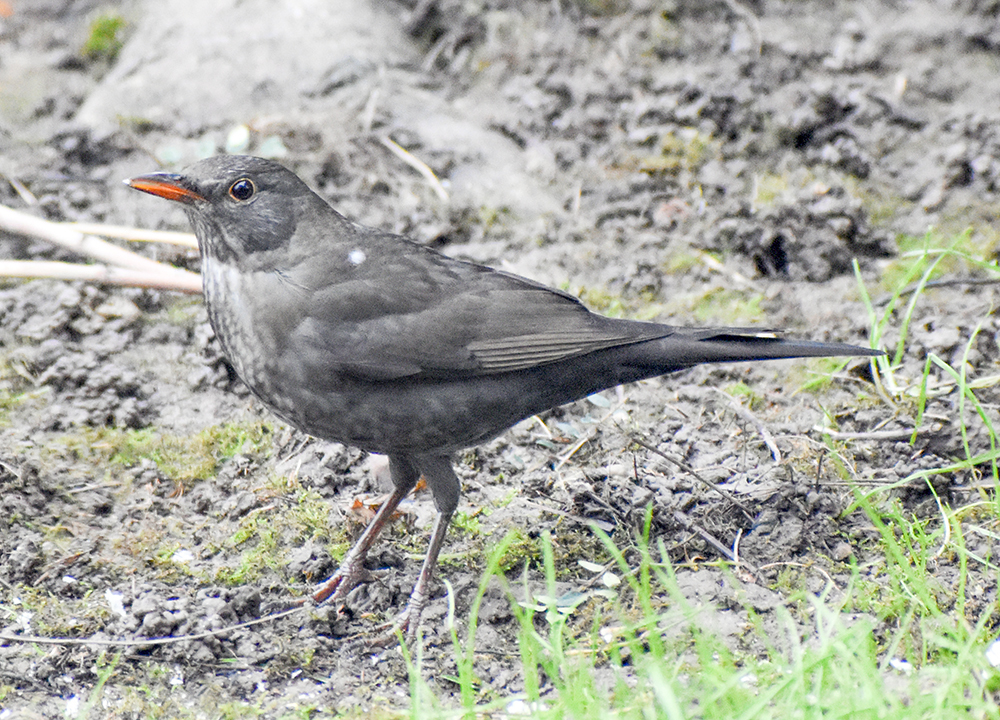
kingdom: Animalia
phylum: Chordata
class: Aves
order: Passeriformes
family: Turdidae
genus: Turdus
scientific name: Turdus merula
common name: Common blackbird
